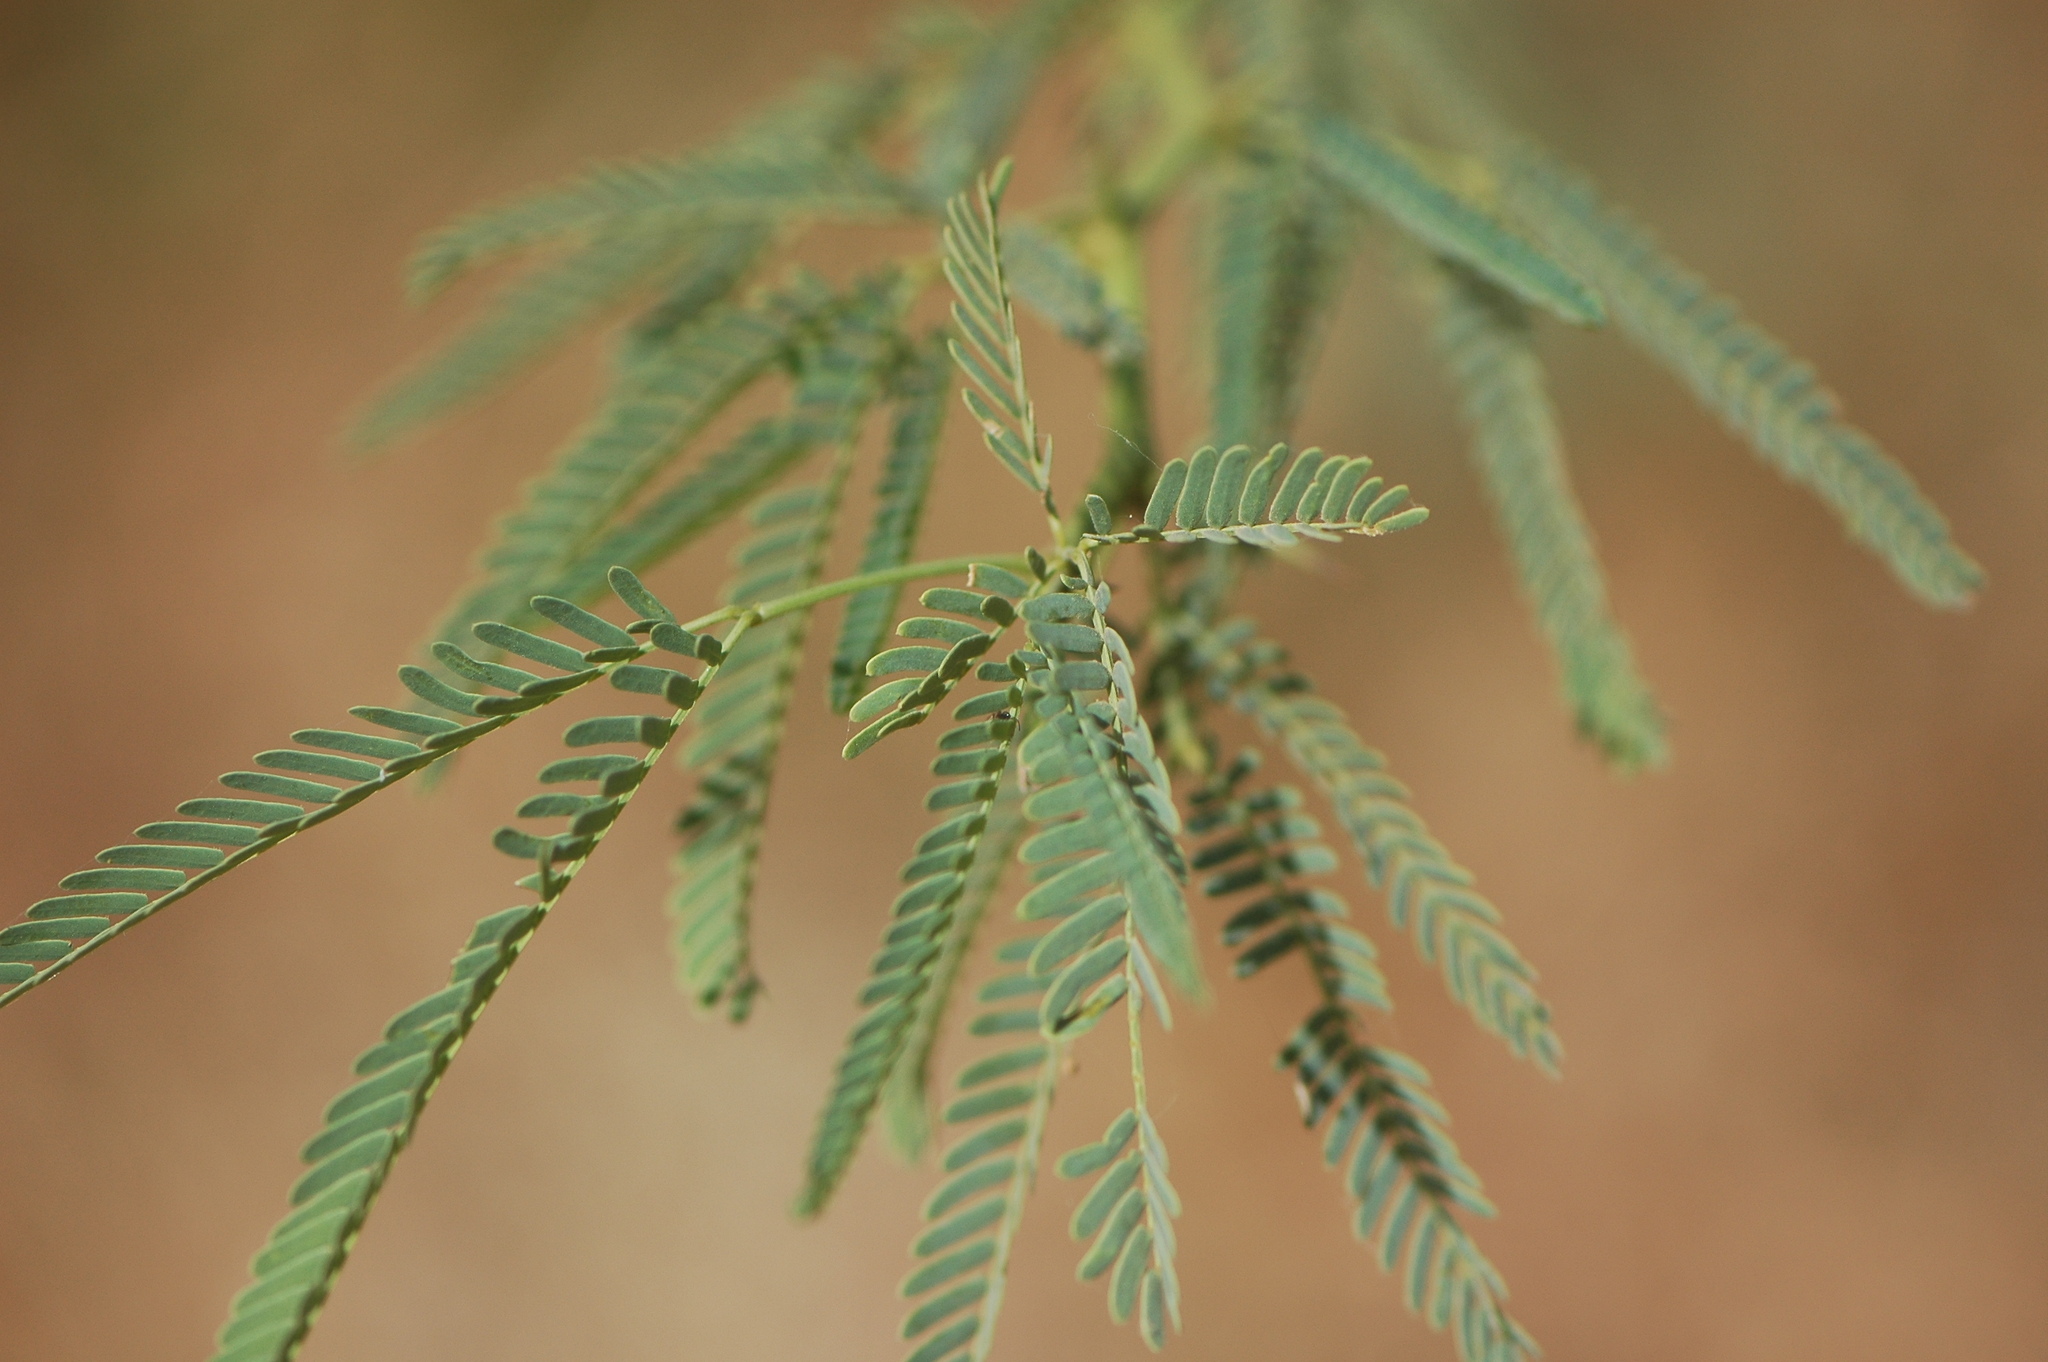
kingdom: Plantae
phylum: Tracheophyta
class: Magnoliopsida
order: Fabales
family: Fabaceae
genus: Prosopis
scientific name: Prosopis juliflora
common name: Mesquite
